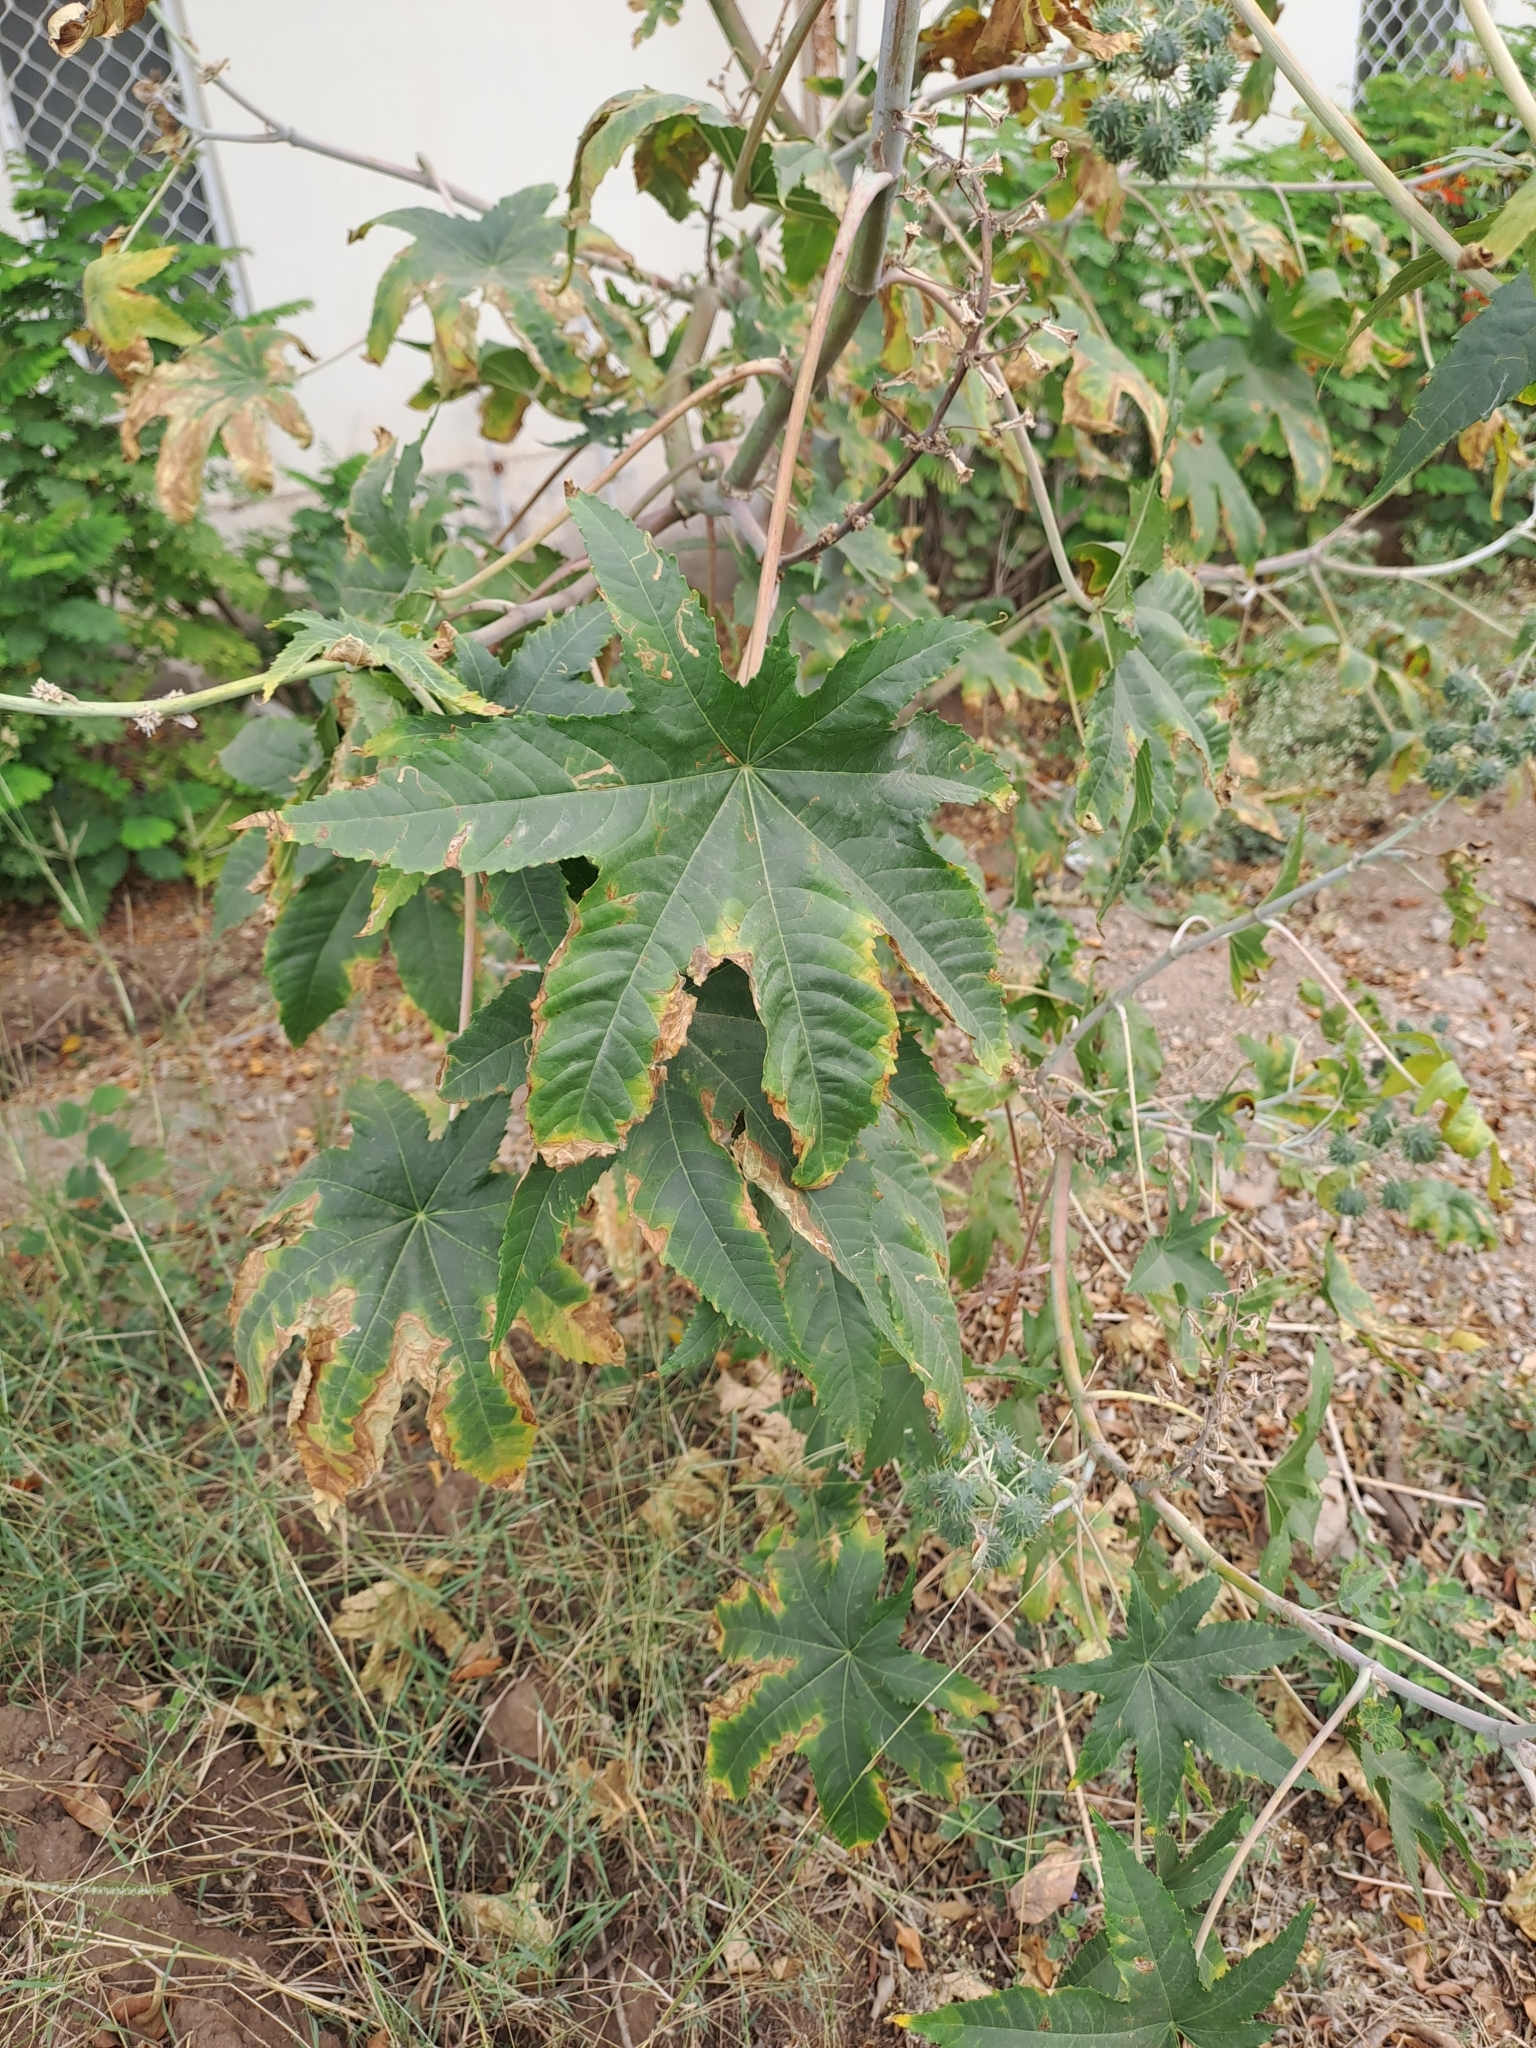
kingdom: Plantae
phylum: Tracheophyta
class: Magnoliopsida
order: Malpighiales
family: Euphorbiaceae
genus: Ricinus
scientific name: Ricinus communis
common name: Castor-oil-plant
